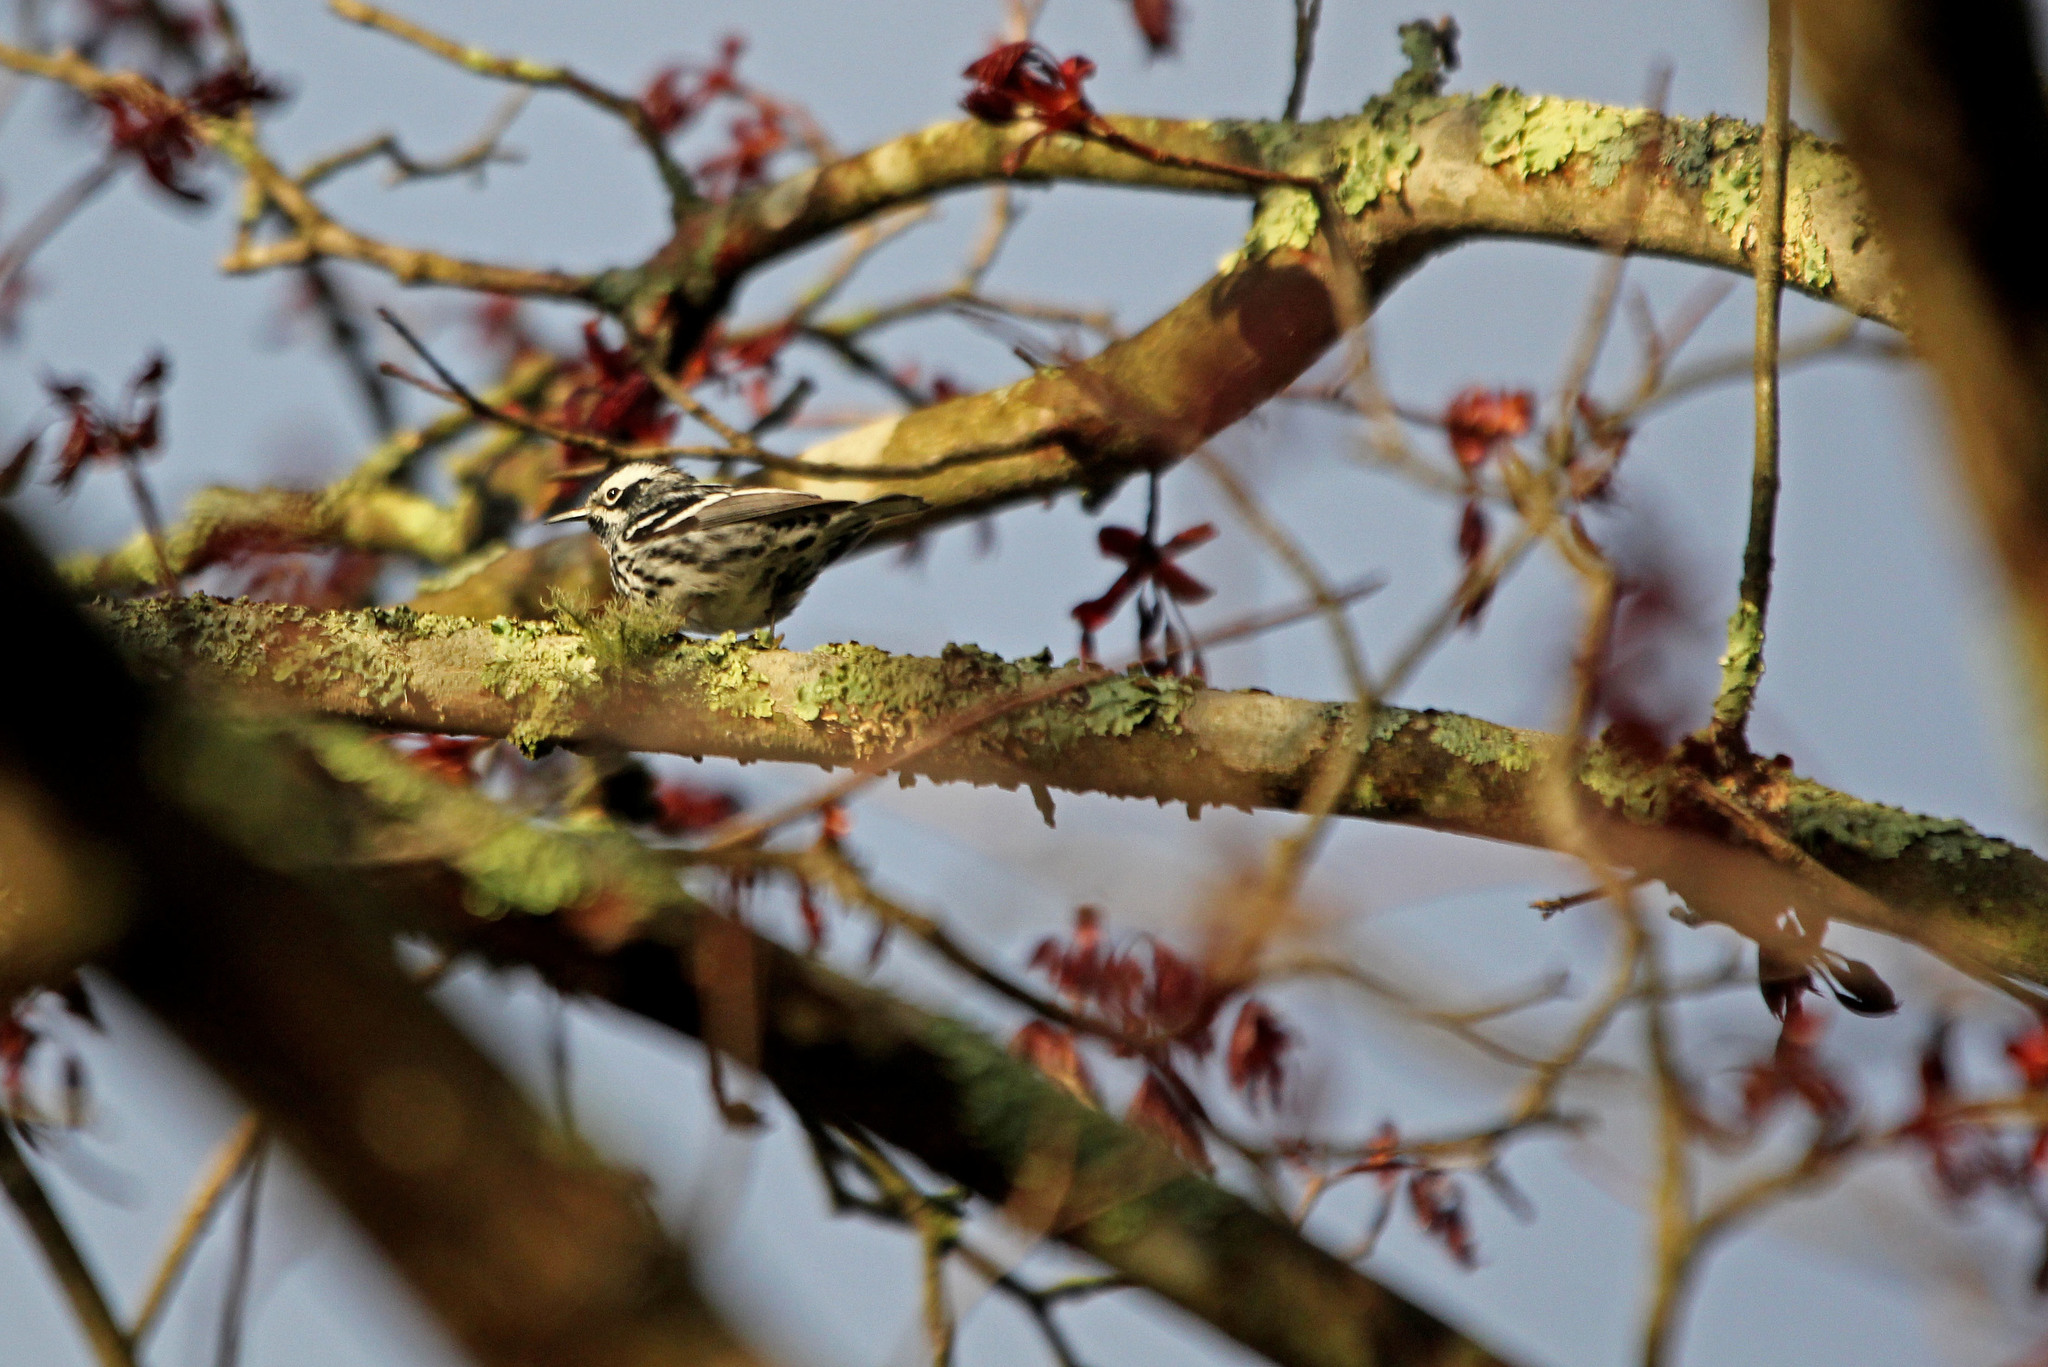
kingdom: Animalia
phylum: Chordata
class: Aves
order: Passeriformes
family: Parulidae
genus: Mniotilta
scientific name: Mniotilta varia
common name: Black-and-white warbler
